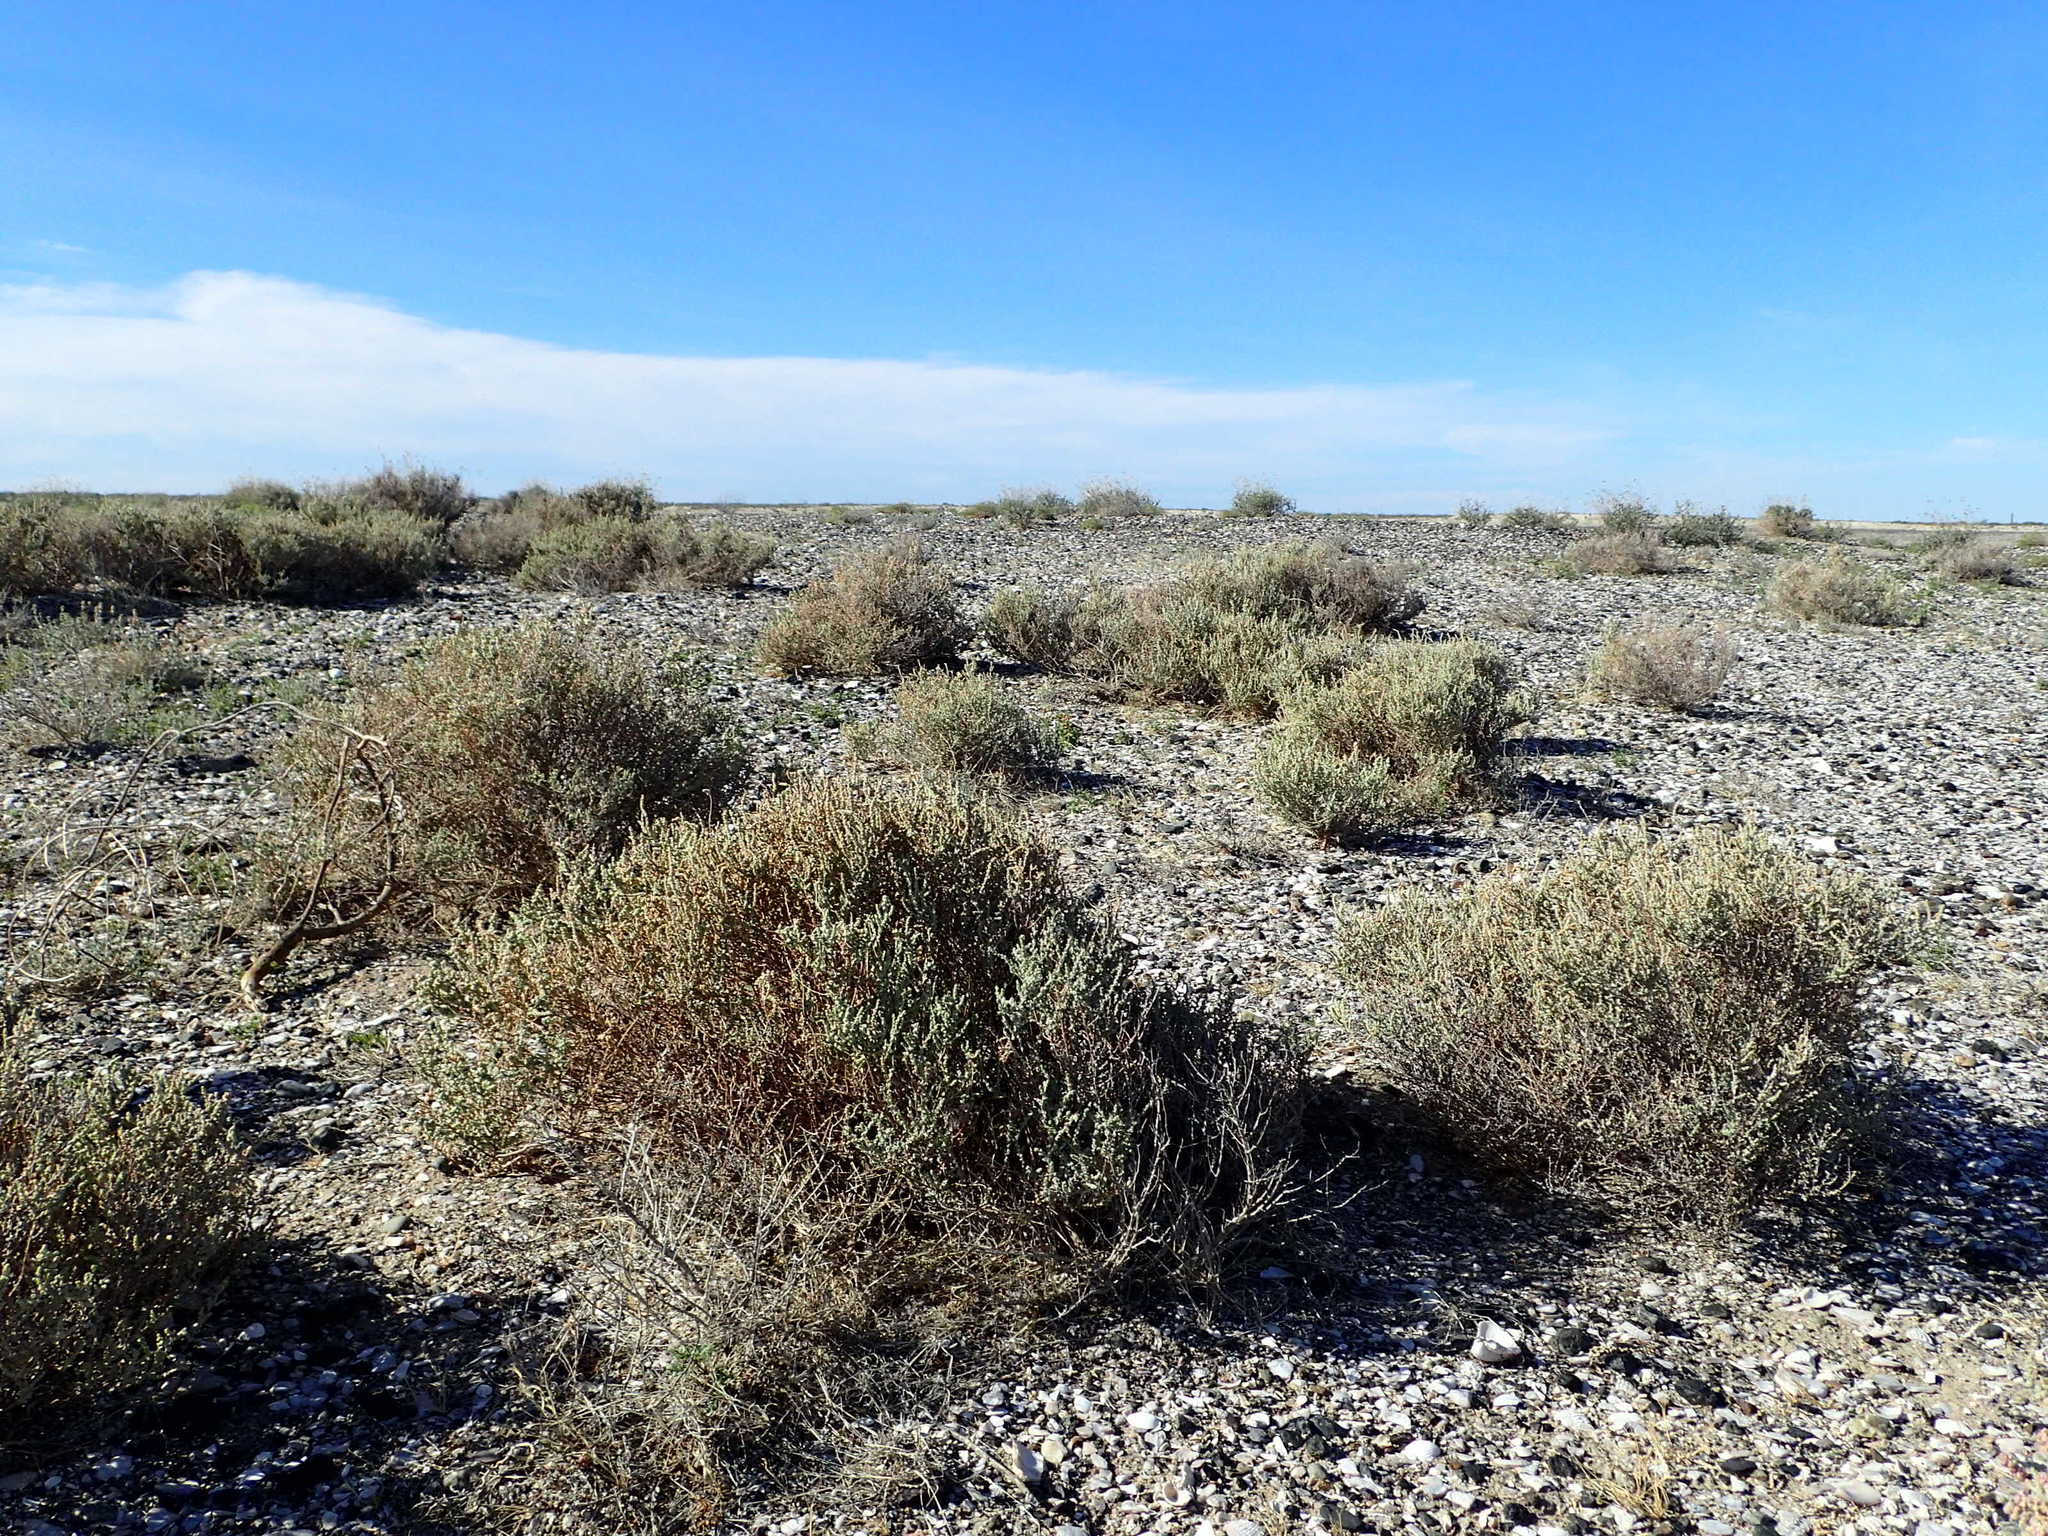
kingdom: Plantae
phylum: Tracheophyta
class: Magnoliopsida
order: Caryophyllales
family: Amaranthaceae
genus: Atriplex
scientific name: Atriplex julacea
